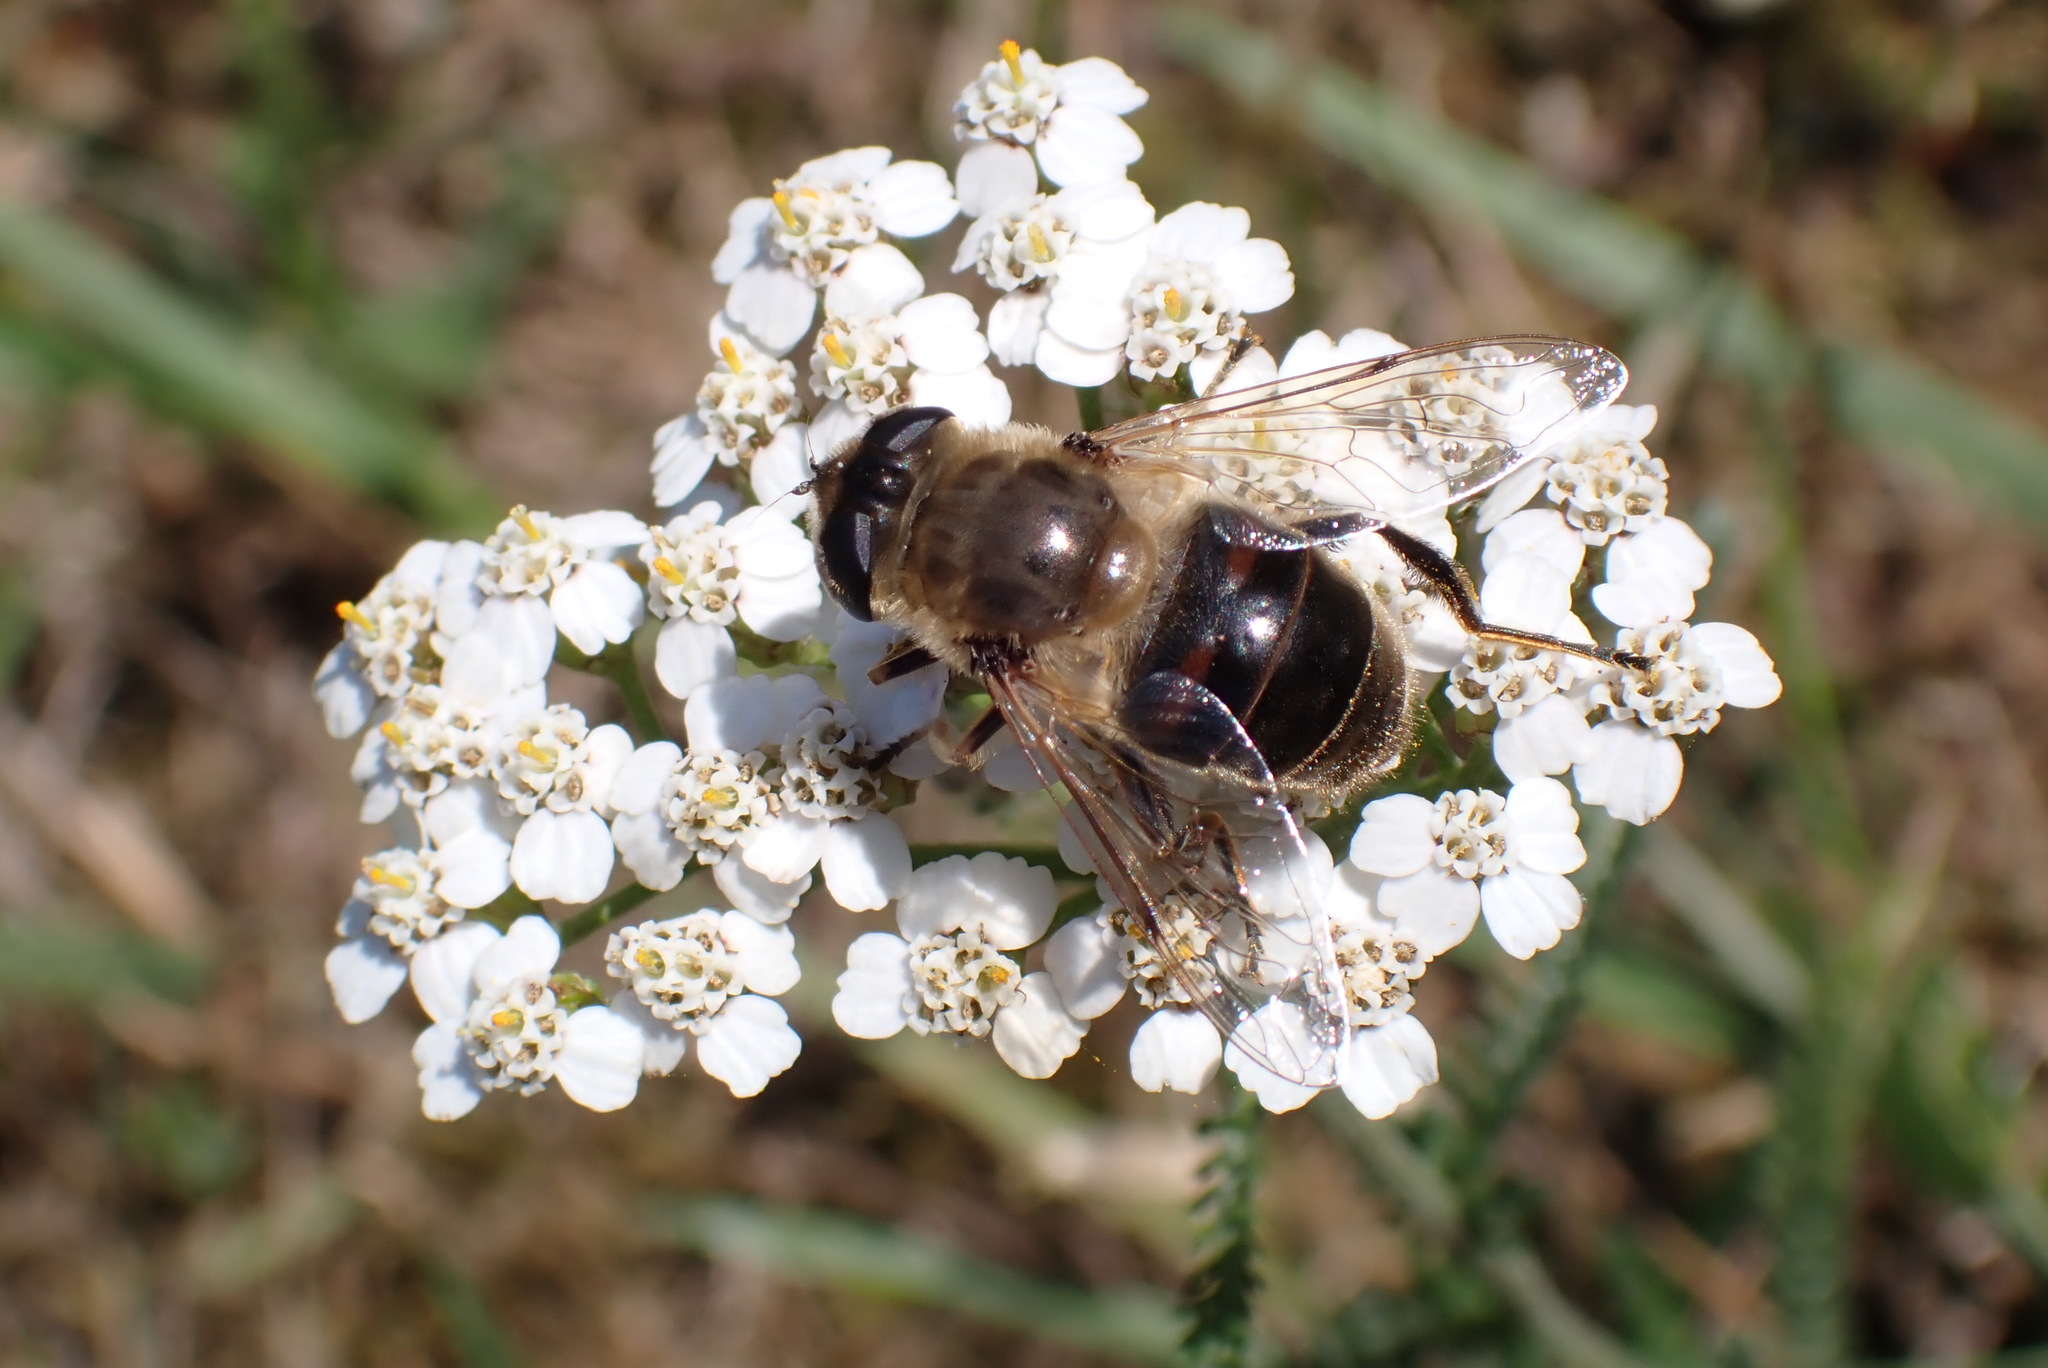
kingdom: Animalia
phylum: Arthropoda
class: Insecta
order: Diptera
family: Syrphidae
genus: Eristalis
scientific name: Eristalis tenax
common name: Drone fly
